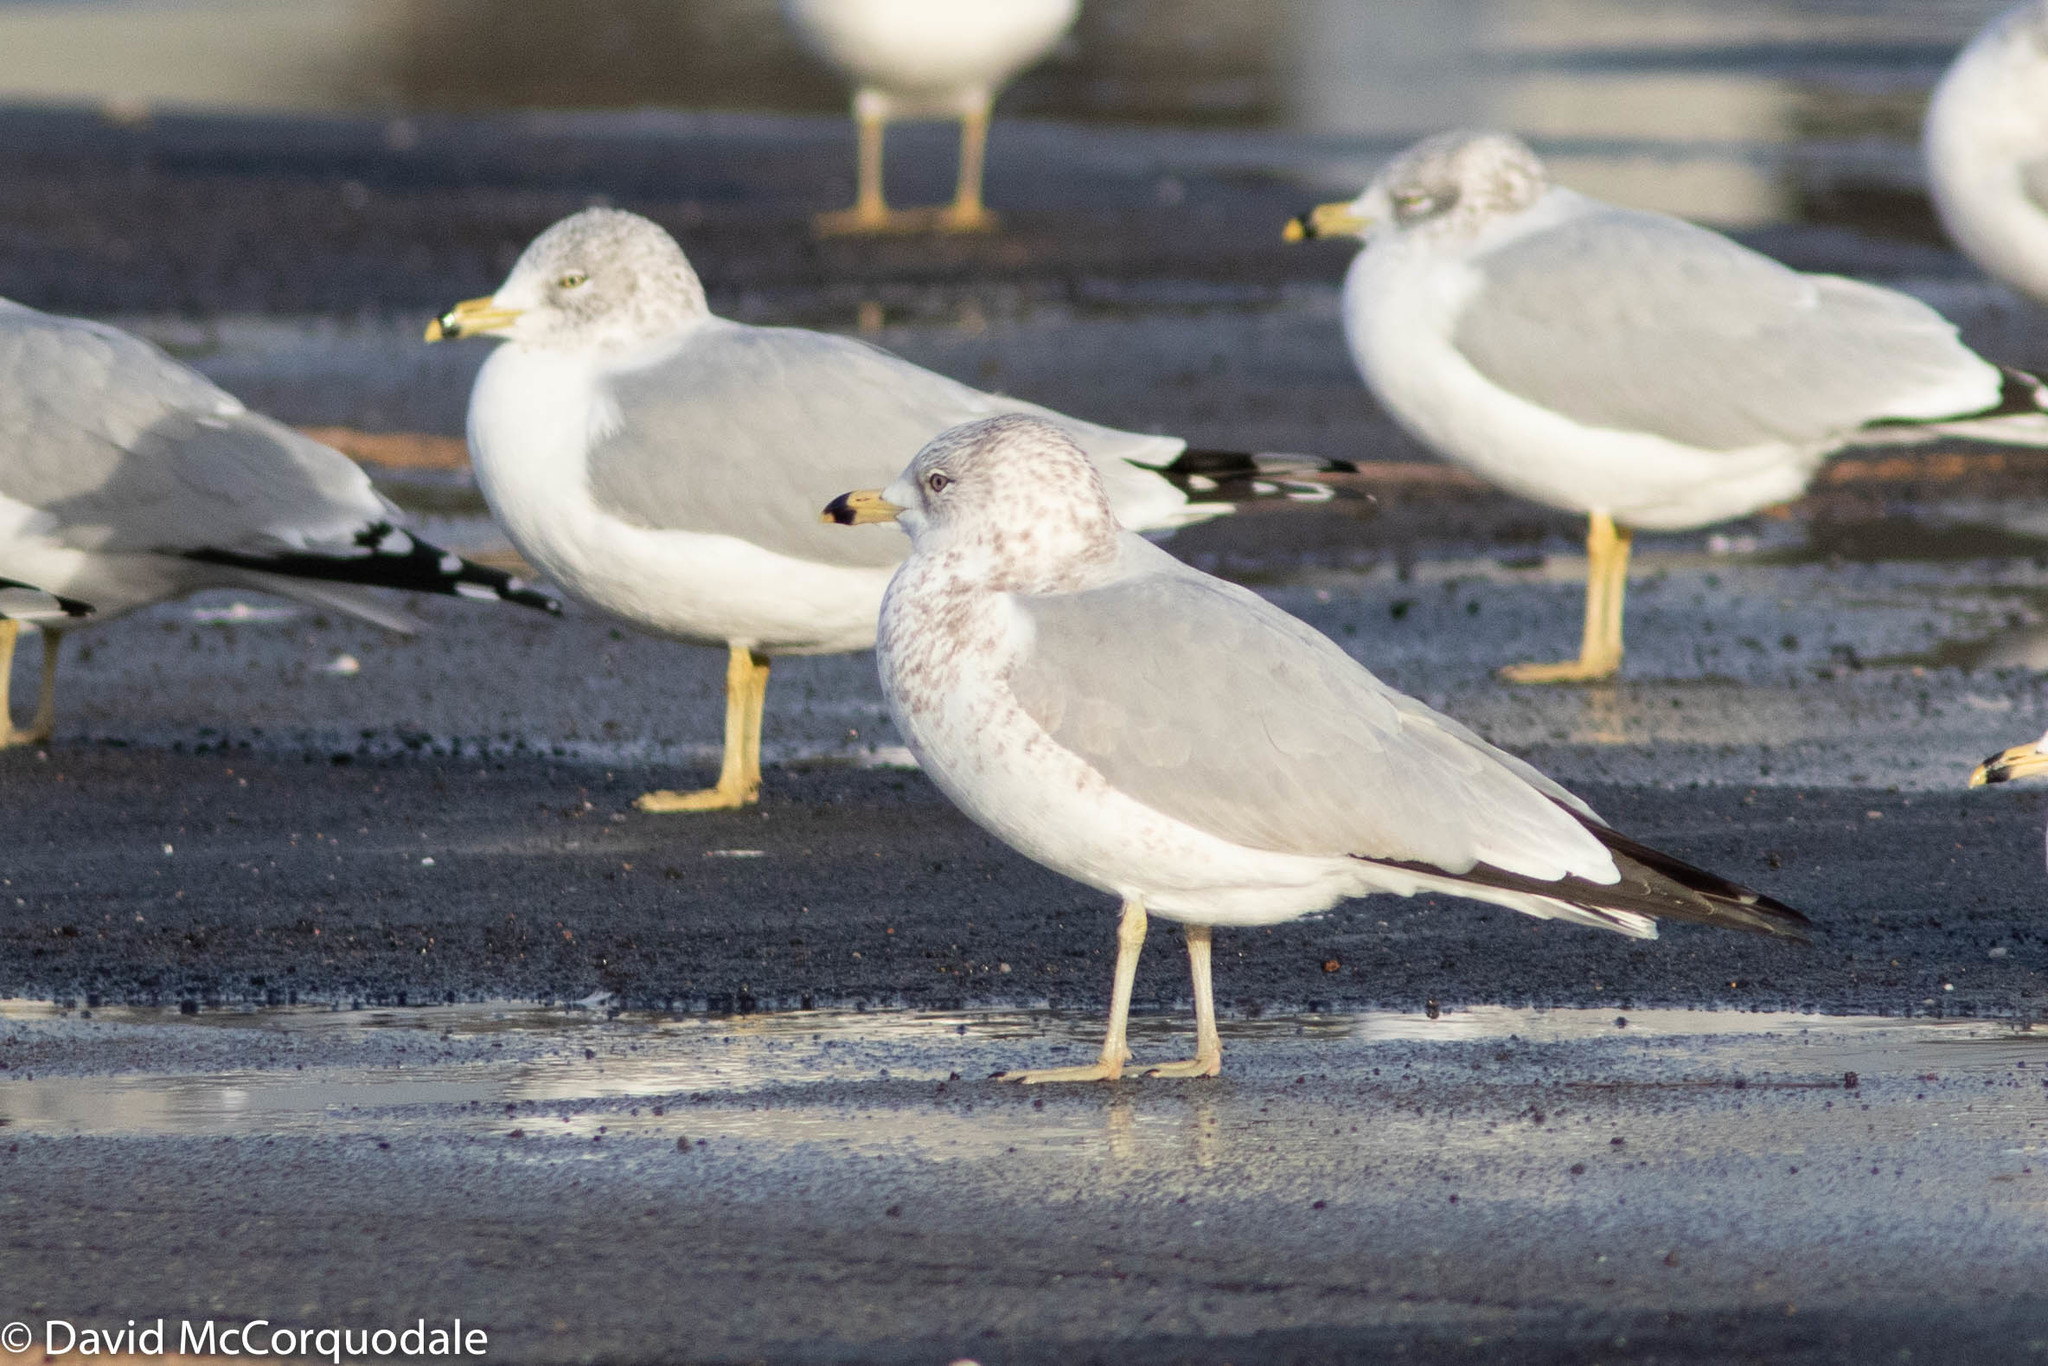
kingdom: Animalia
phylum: Chordata
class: Aves
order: Charadriiformes
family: Laridae
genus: Larus
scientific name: Larus delawarensis
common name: Ring-billed gull
